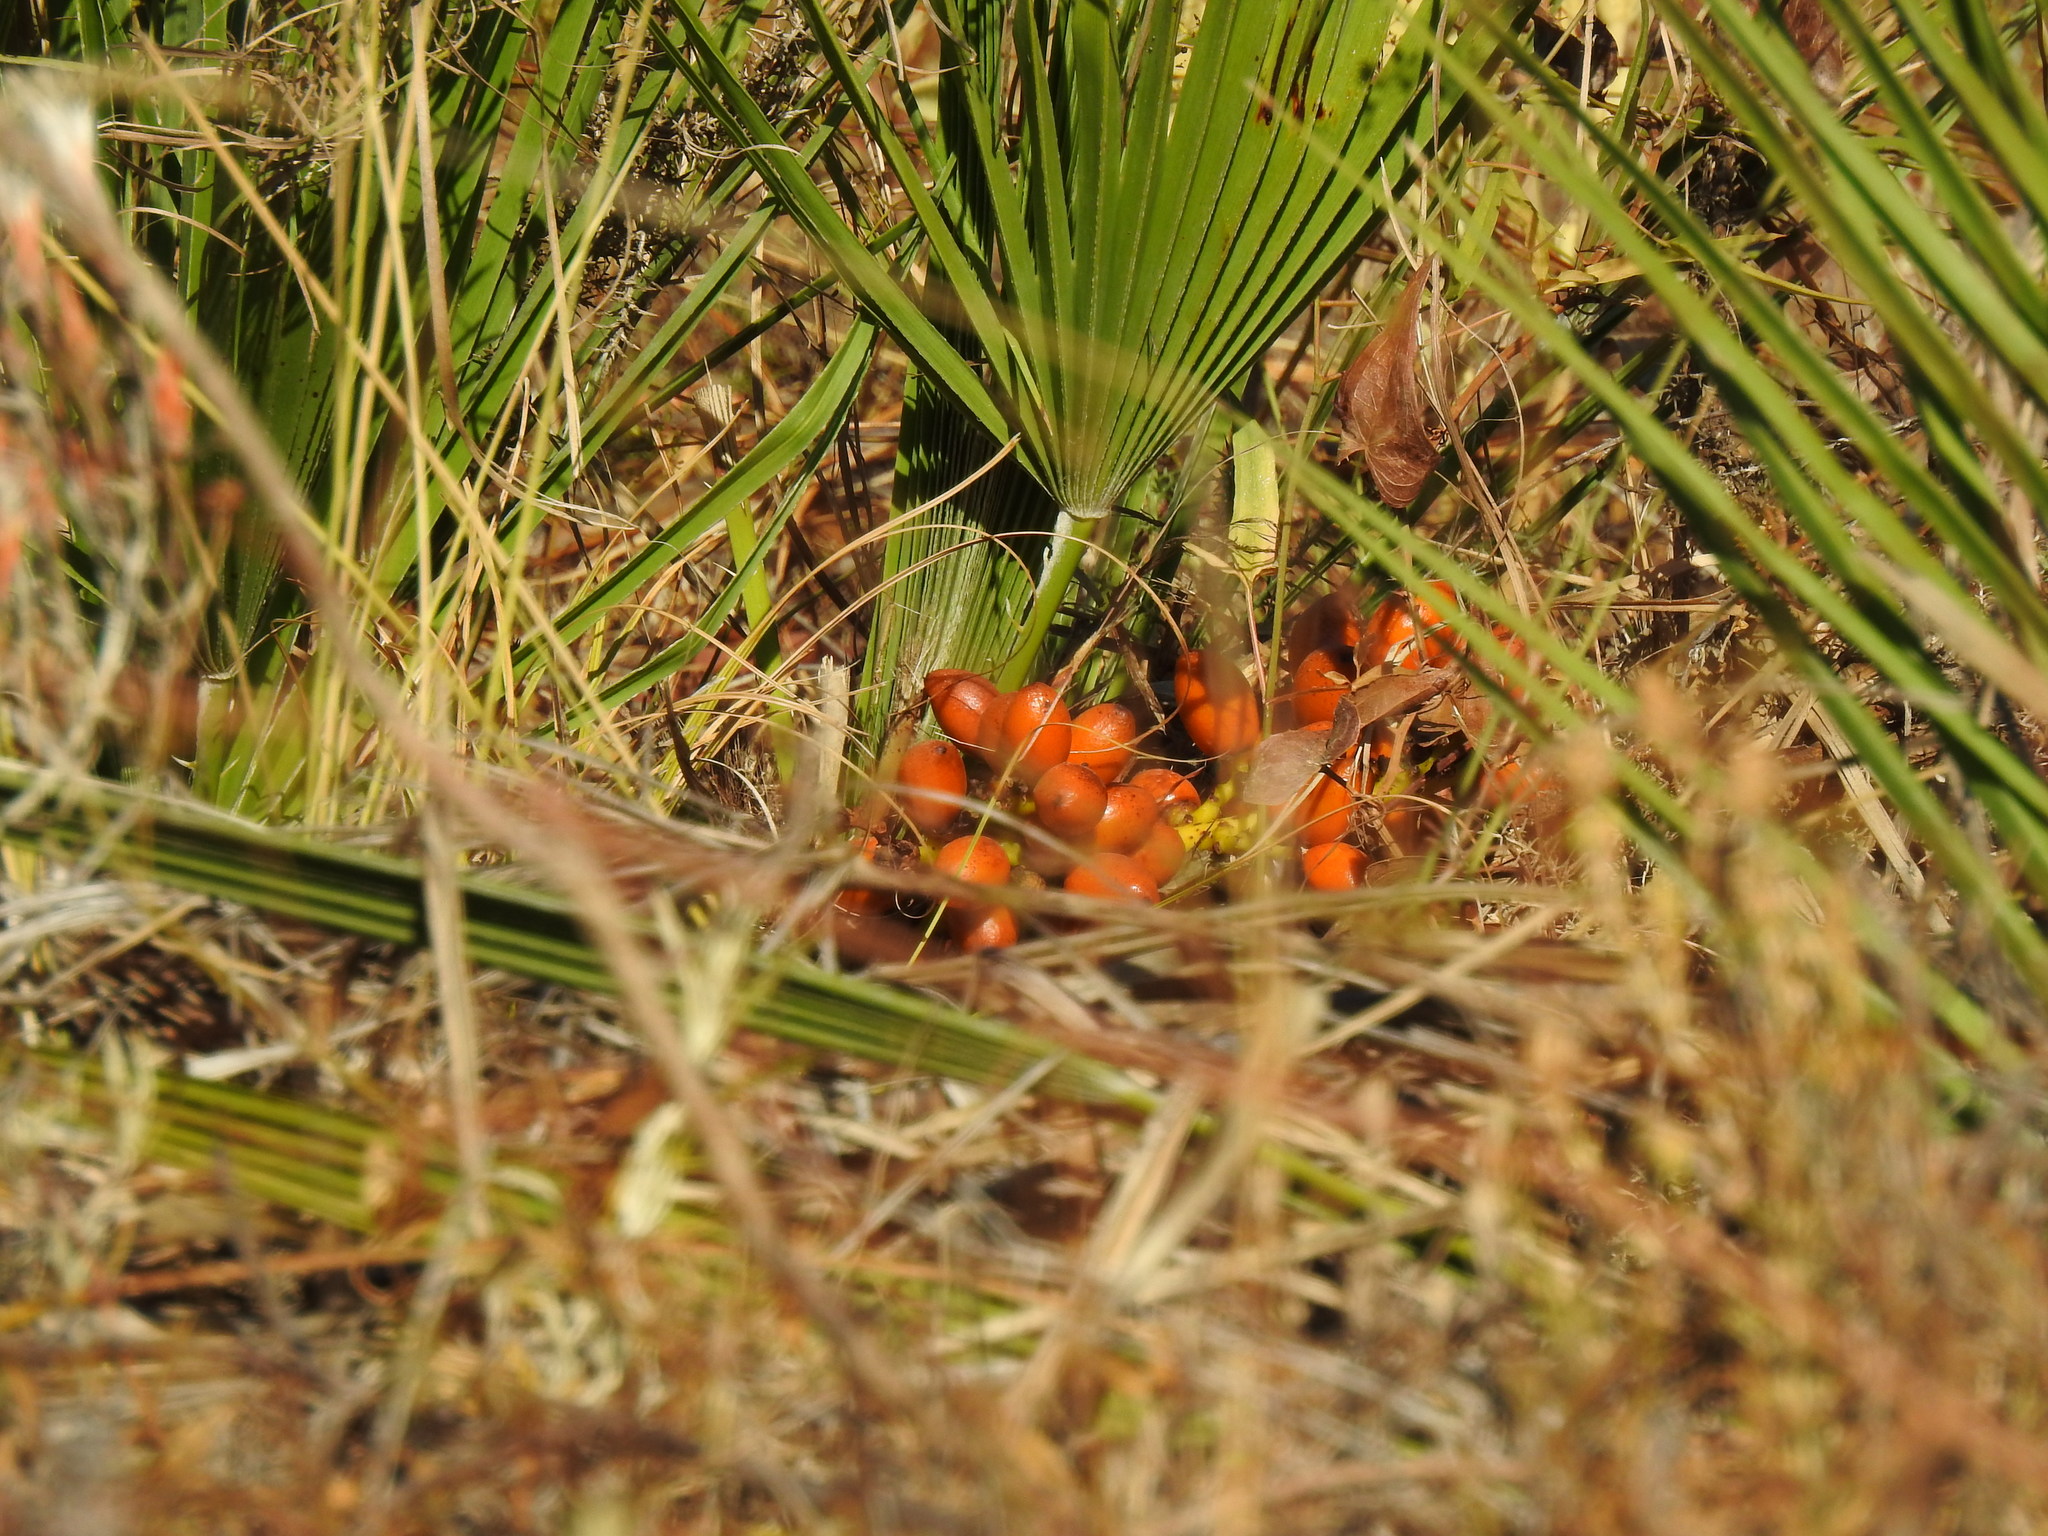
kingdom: Plantae
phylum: Tracheophyta
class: Liliopsida
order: Arecales
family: Arecaceae
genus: Chamaerops
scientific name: Chamaerops humilis
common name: Dwarf fan palm
